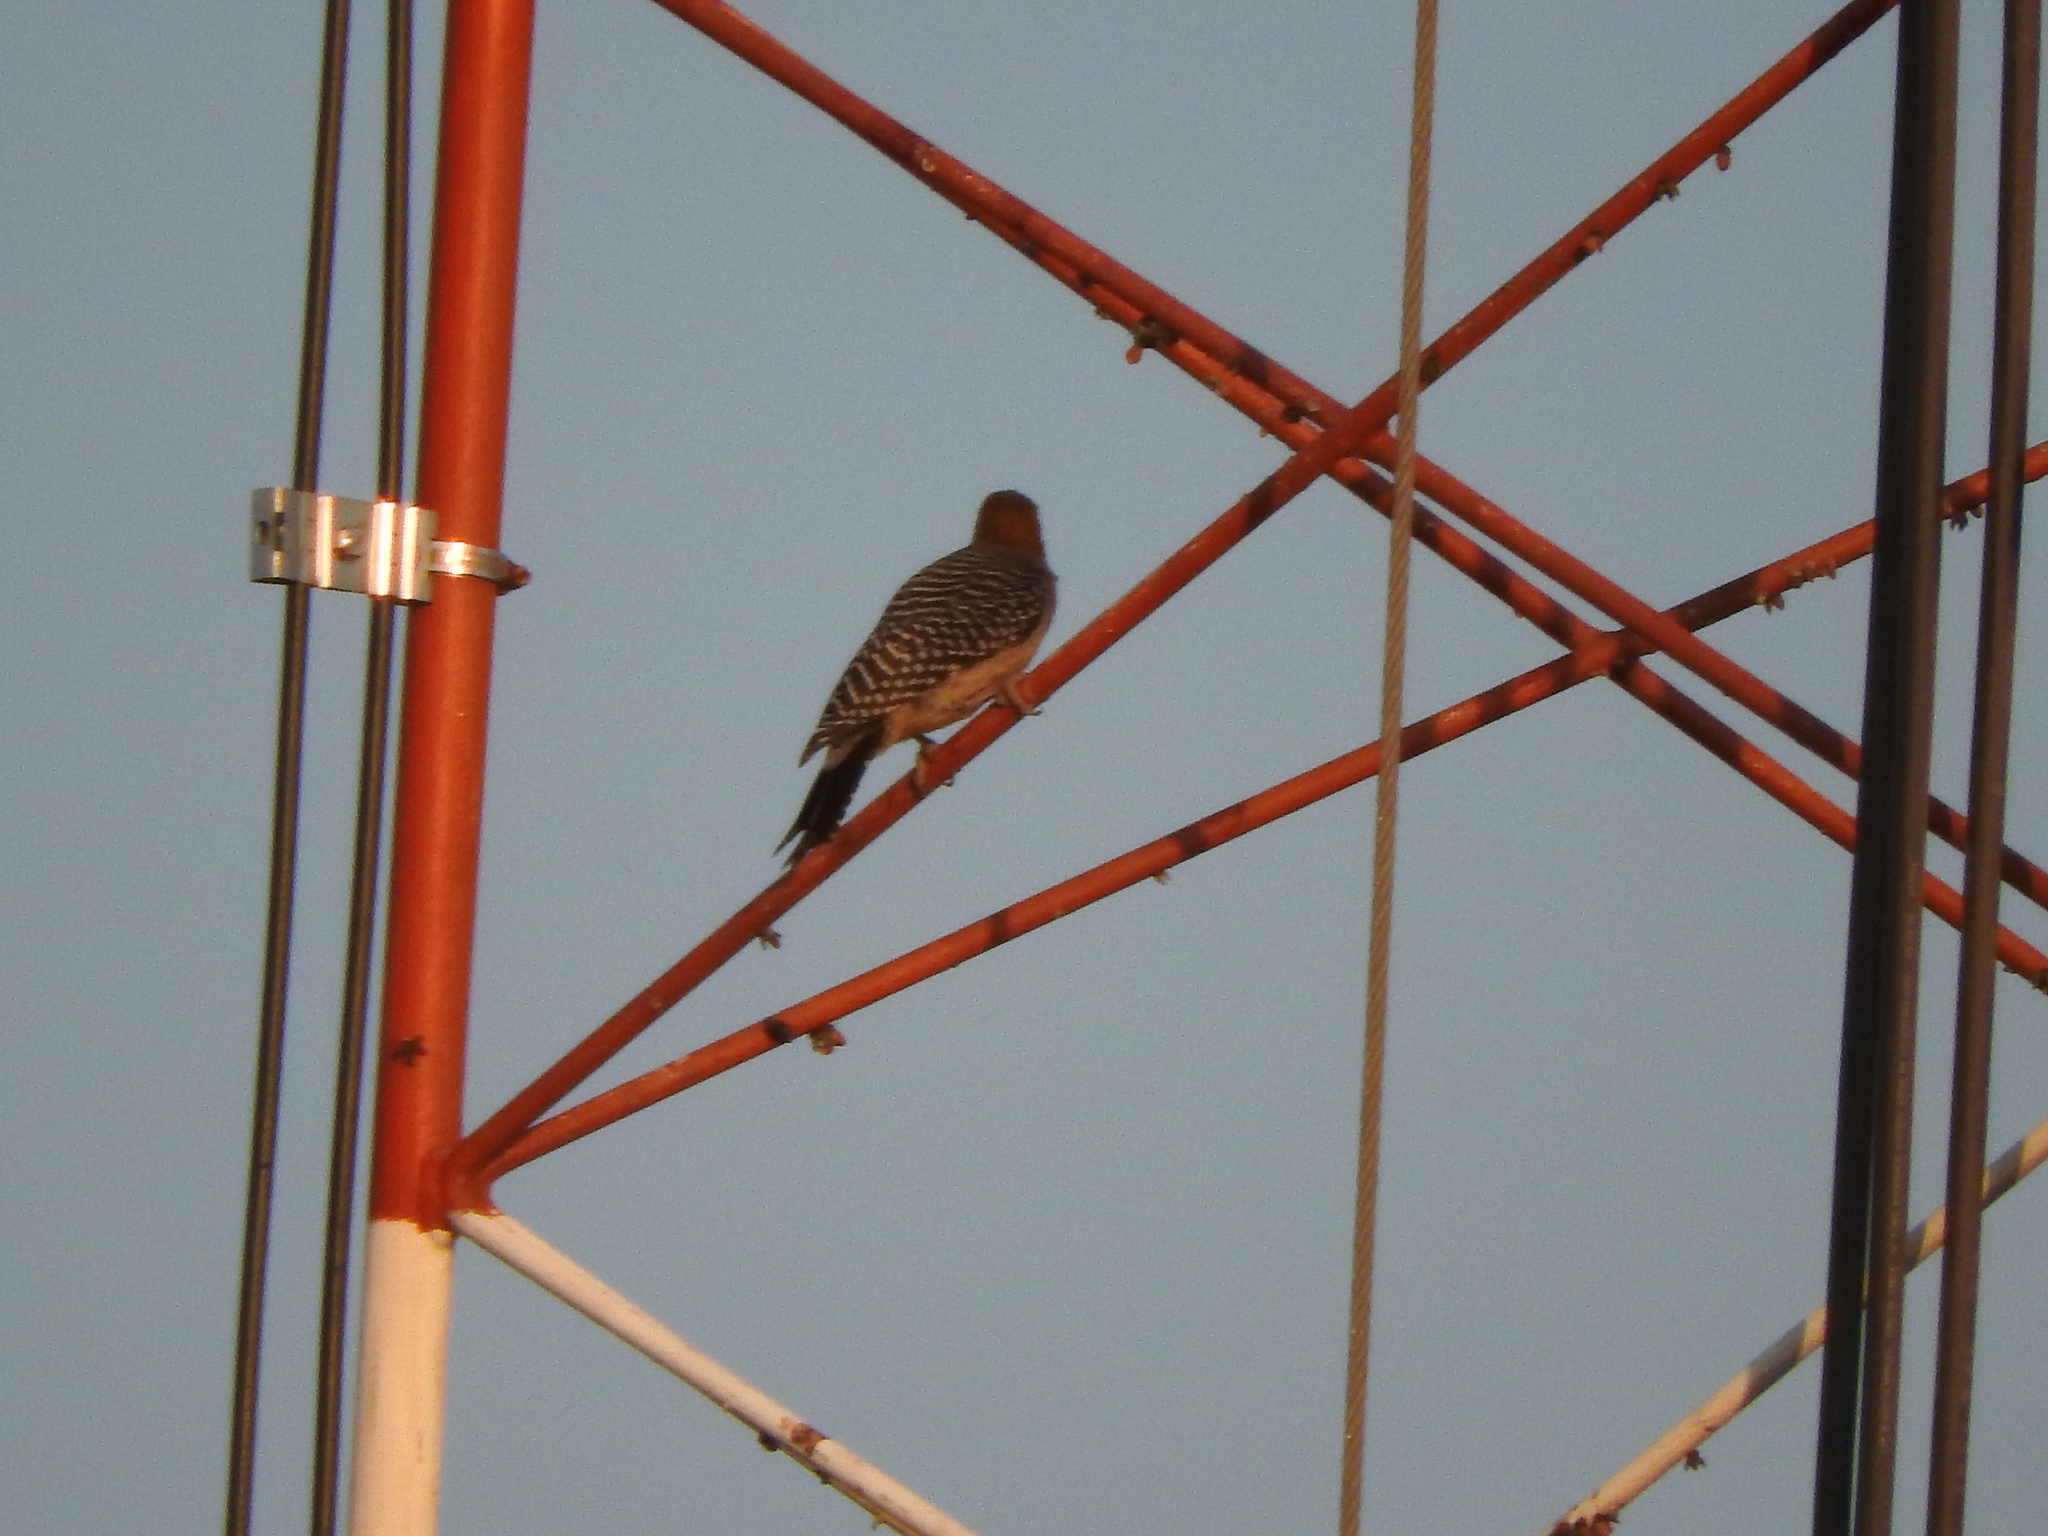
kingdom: Animalia
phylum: Chordata
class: Aves
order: Piciformes
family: Picidae
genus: Melanerpes
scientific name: Melanerpes aurifrons
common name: Golden-fronted woodpecker
